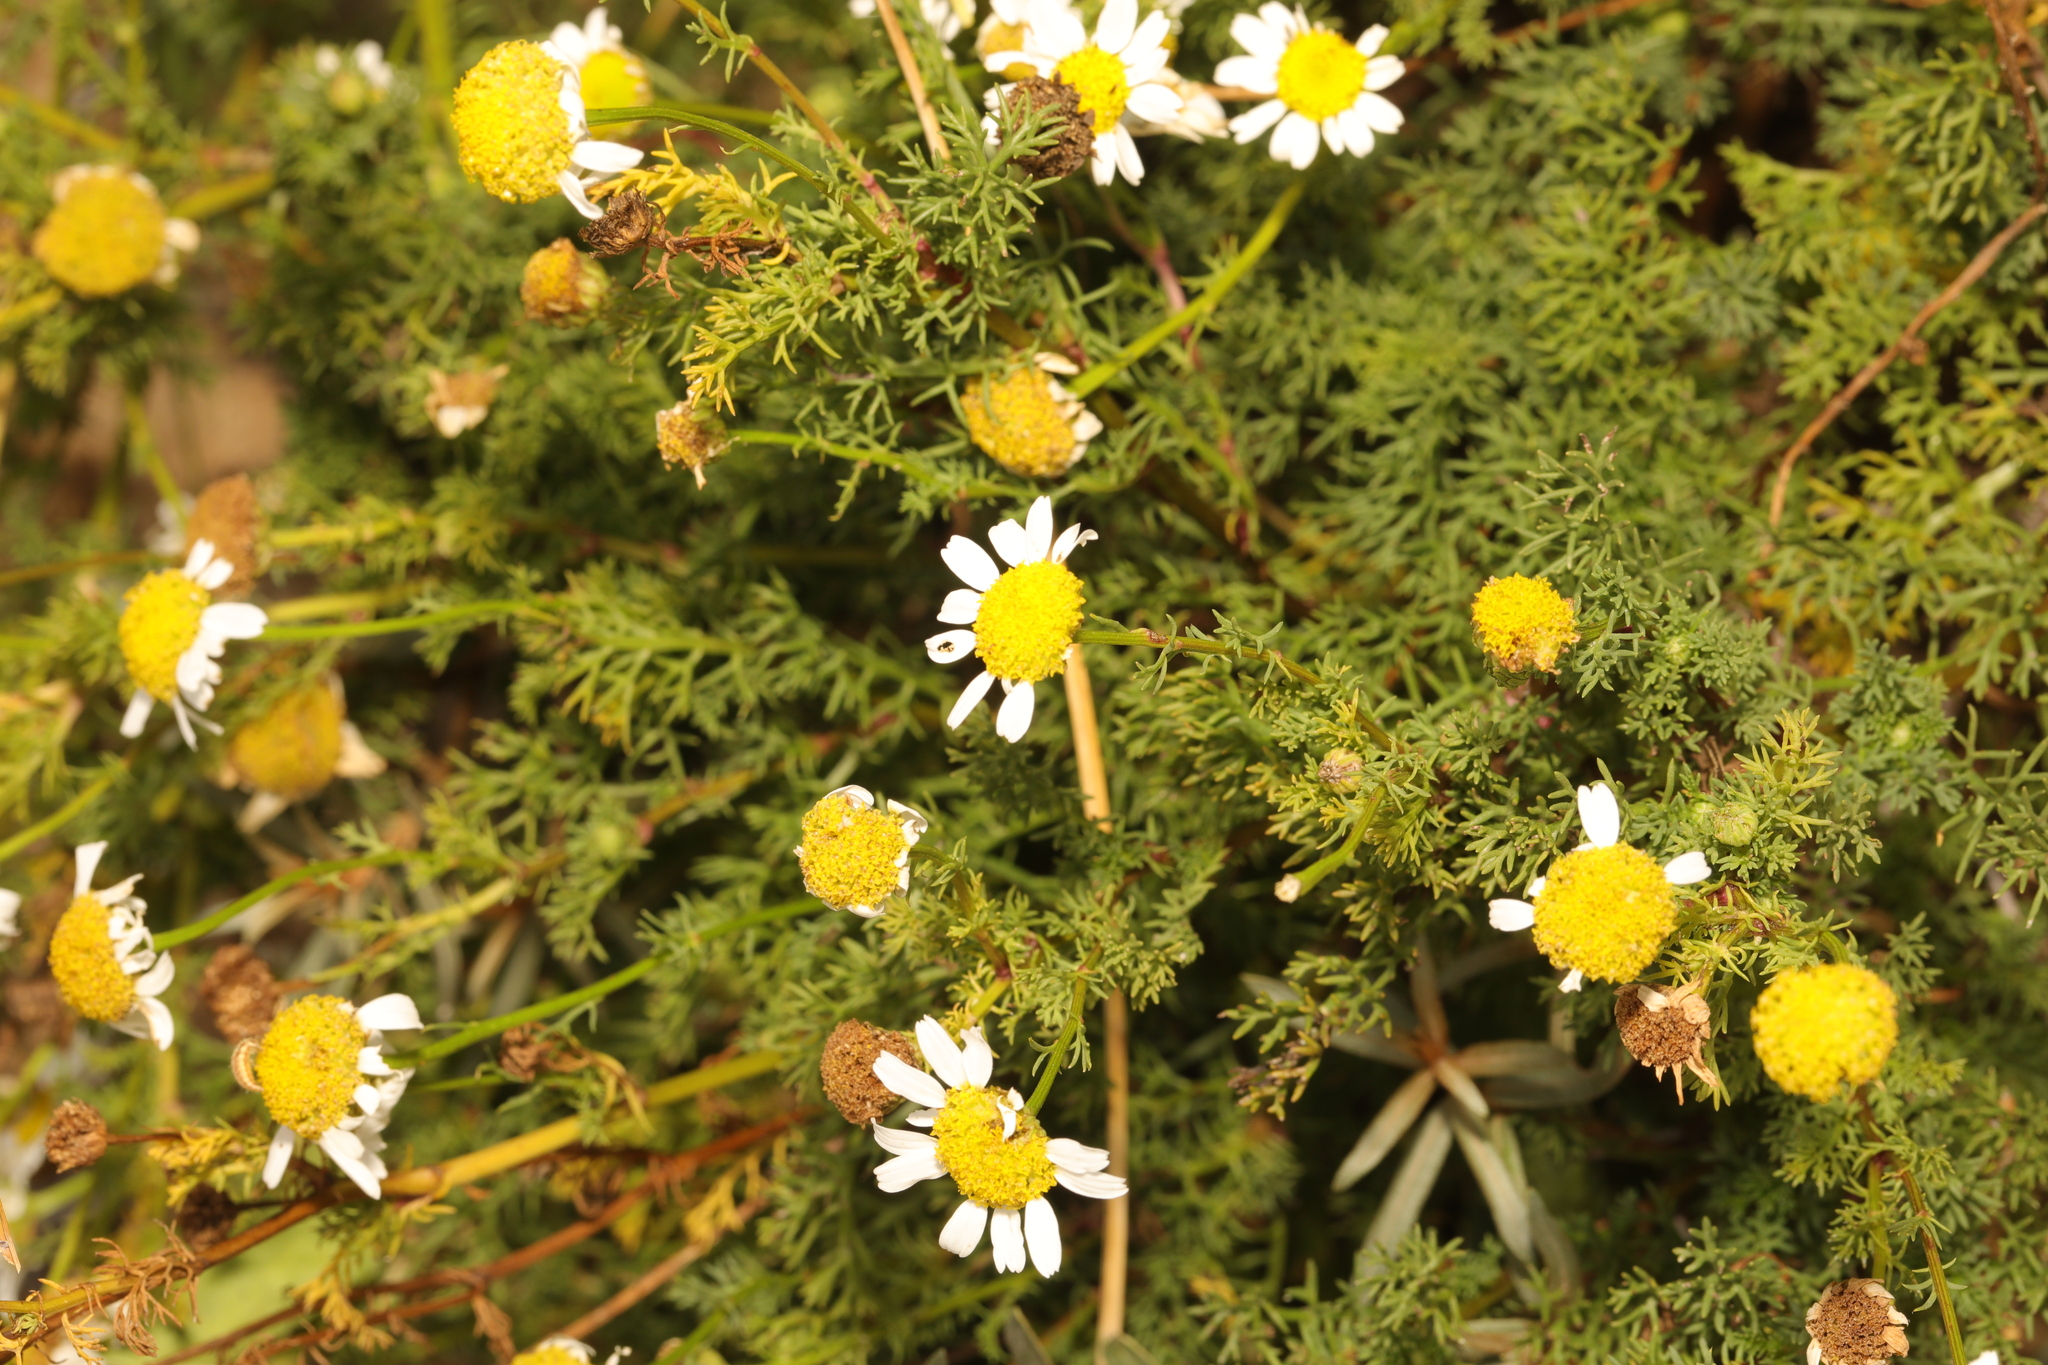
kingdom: Plantae
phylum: Tracheophyta
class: Magnoliopsida
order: Asterales
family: Asteraceae
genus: Tripleurospermum
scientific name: Tripleurospermum maritimum
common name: Sea mayweed
